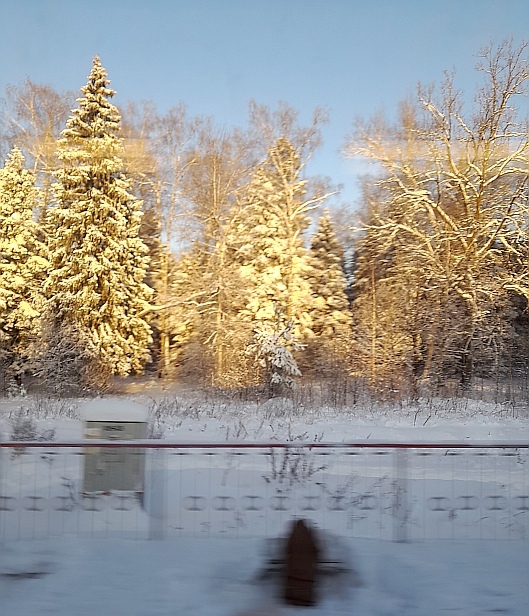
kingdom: Plantae
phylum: Tracheophyta
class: Pinopsida
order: Pinales
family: Pinaceae
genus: Picea
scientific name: Picea abies
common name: Norway spruce
